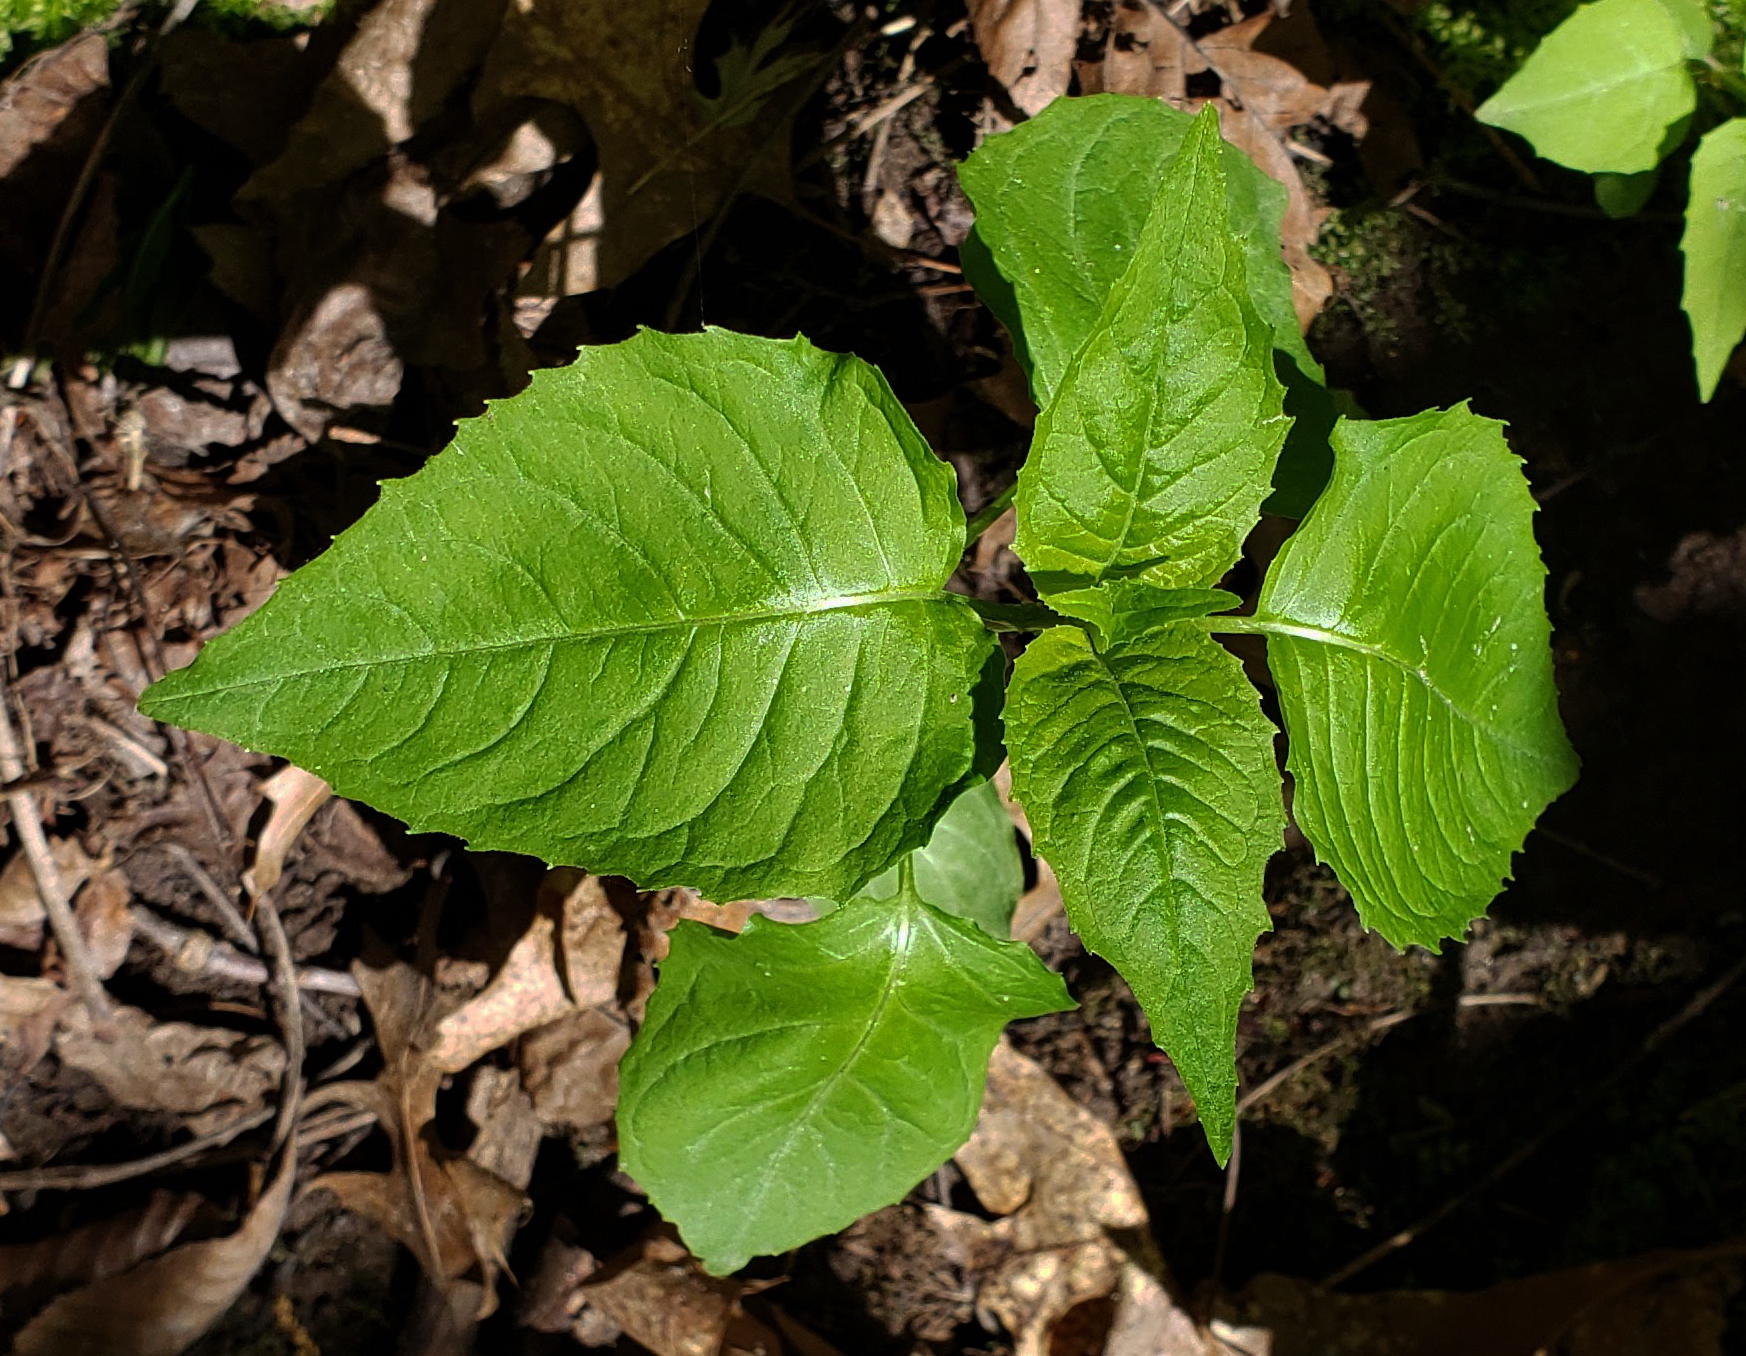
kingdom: Plantae
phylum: Tracheophyta
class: Magnoliopsida
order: Myrtales
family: Onagraceae
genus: Circaea
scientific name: Circaea canadensis
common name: Broad-leaved enchanter's nightshade
